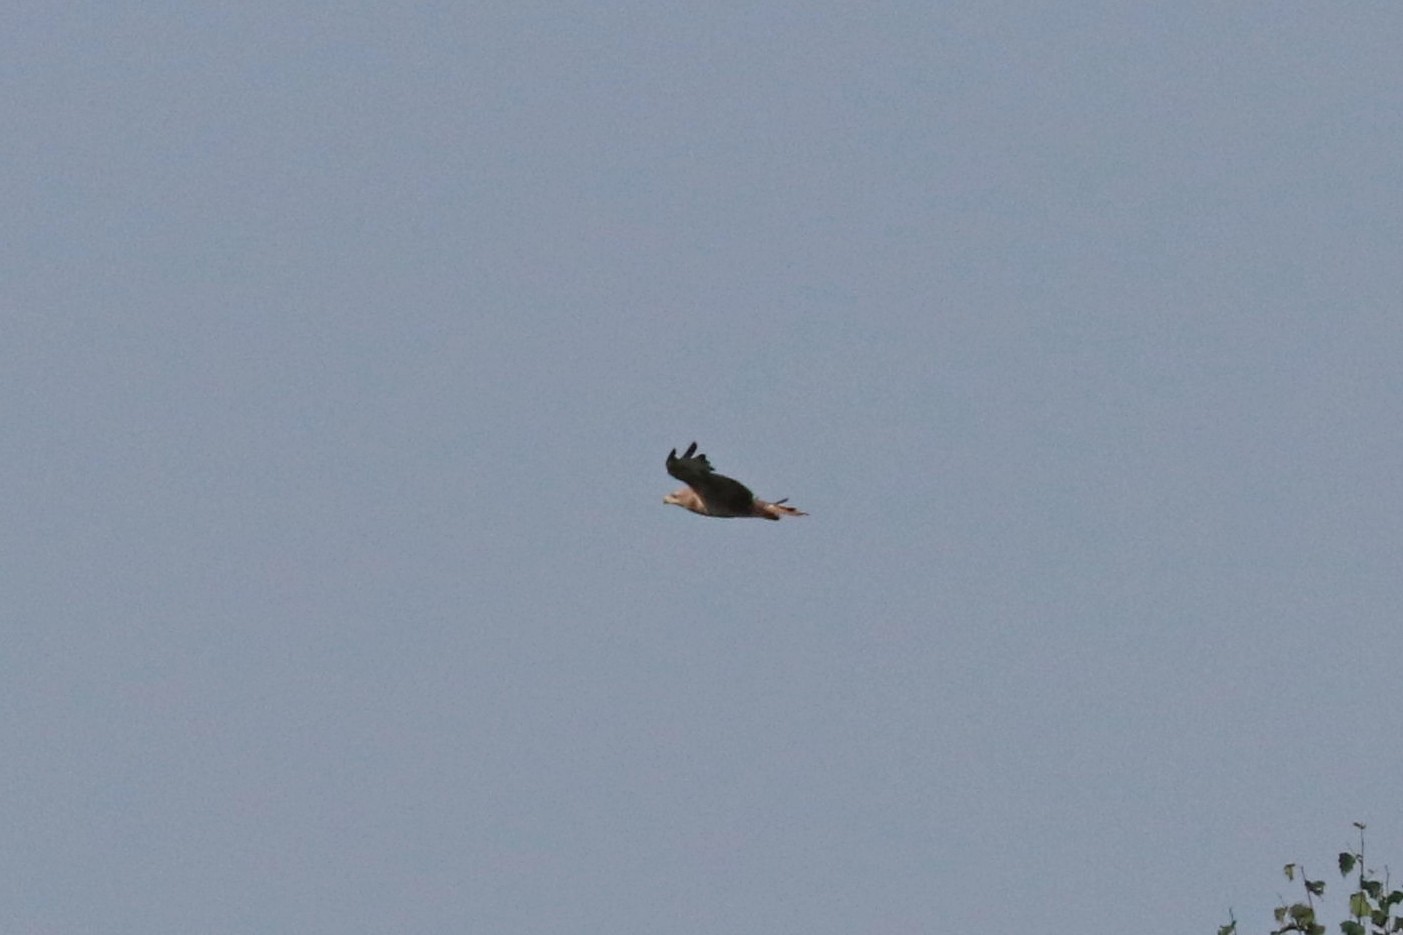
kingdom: Animalia
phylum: Chordata
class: Aves
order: Accipitriformes
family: Accipitridae
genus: Buteo
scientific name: Buteo buteo
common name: Common buzzard
